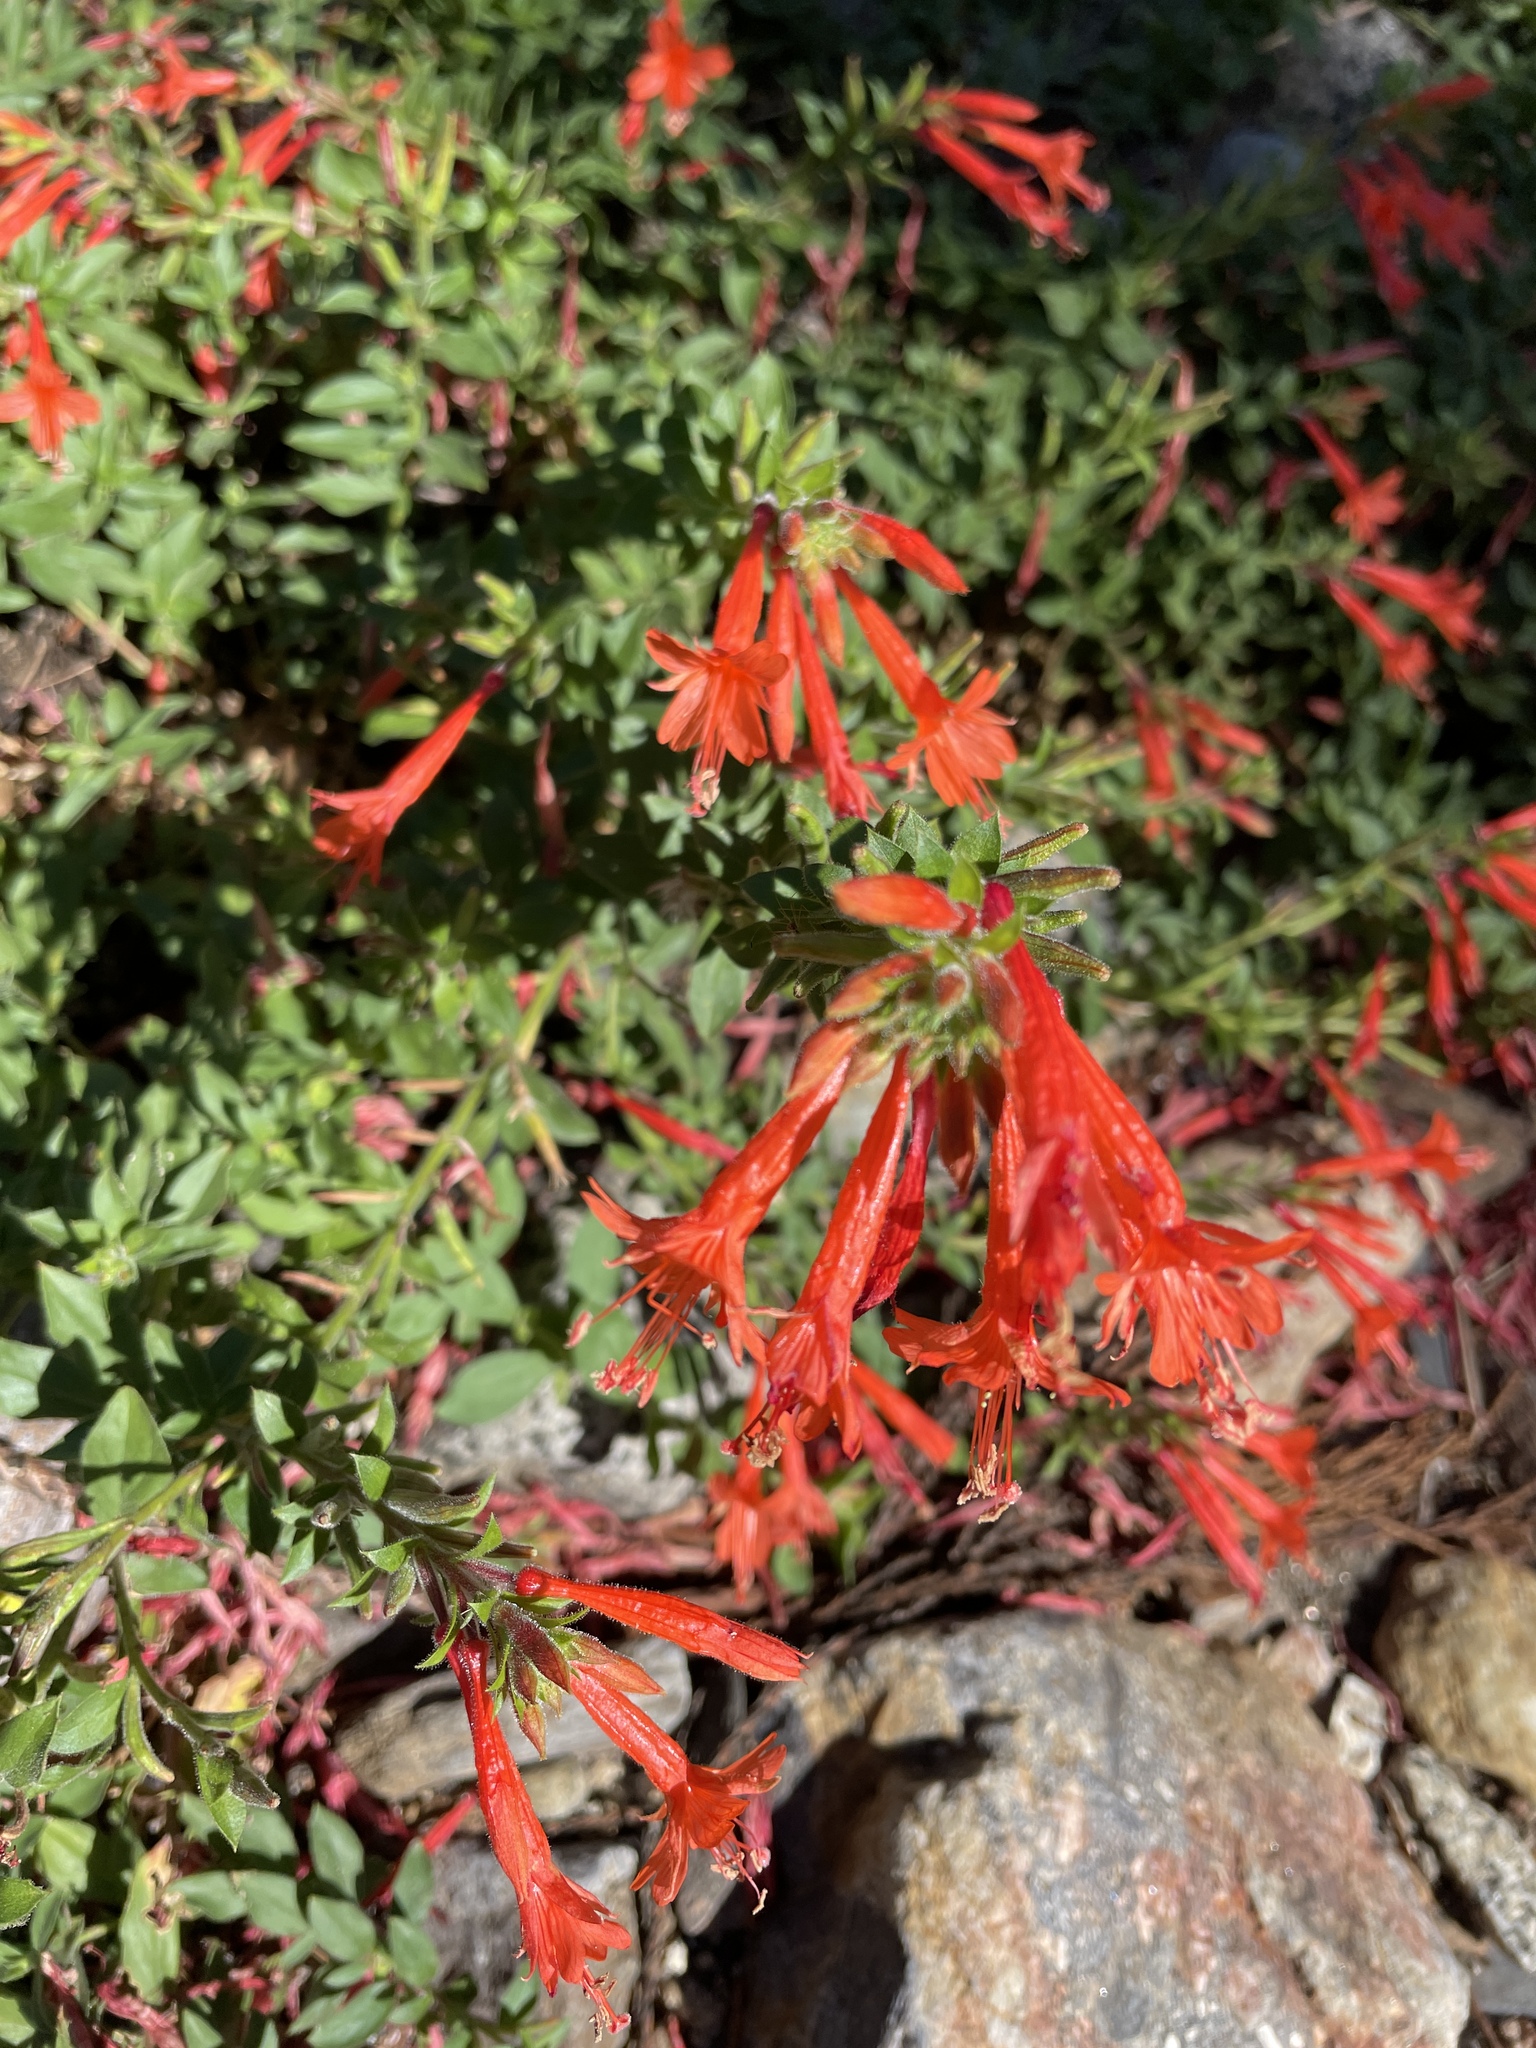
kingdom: Plantae
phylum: Tracheophyta
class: Magnoliopsida
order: Myrtales
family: Onagraceae
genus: Epilobium
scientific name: Epilobium canum
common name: California-fuchsia
